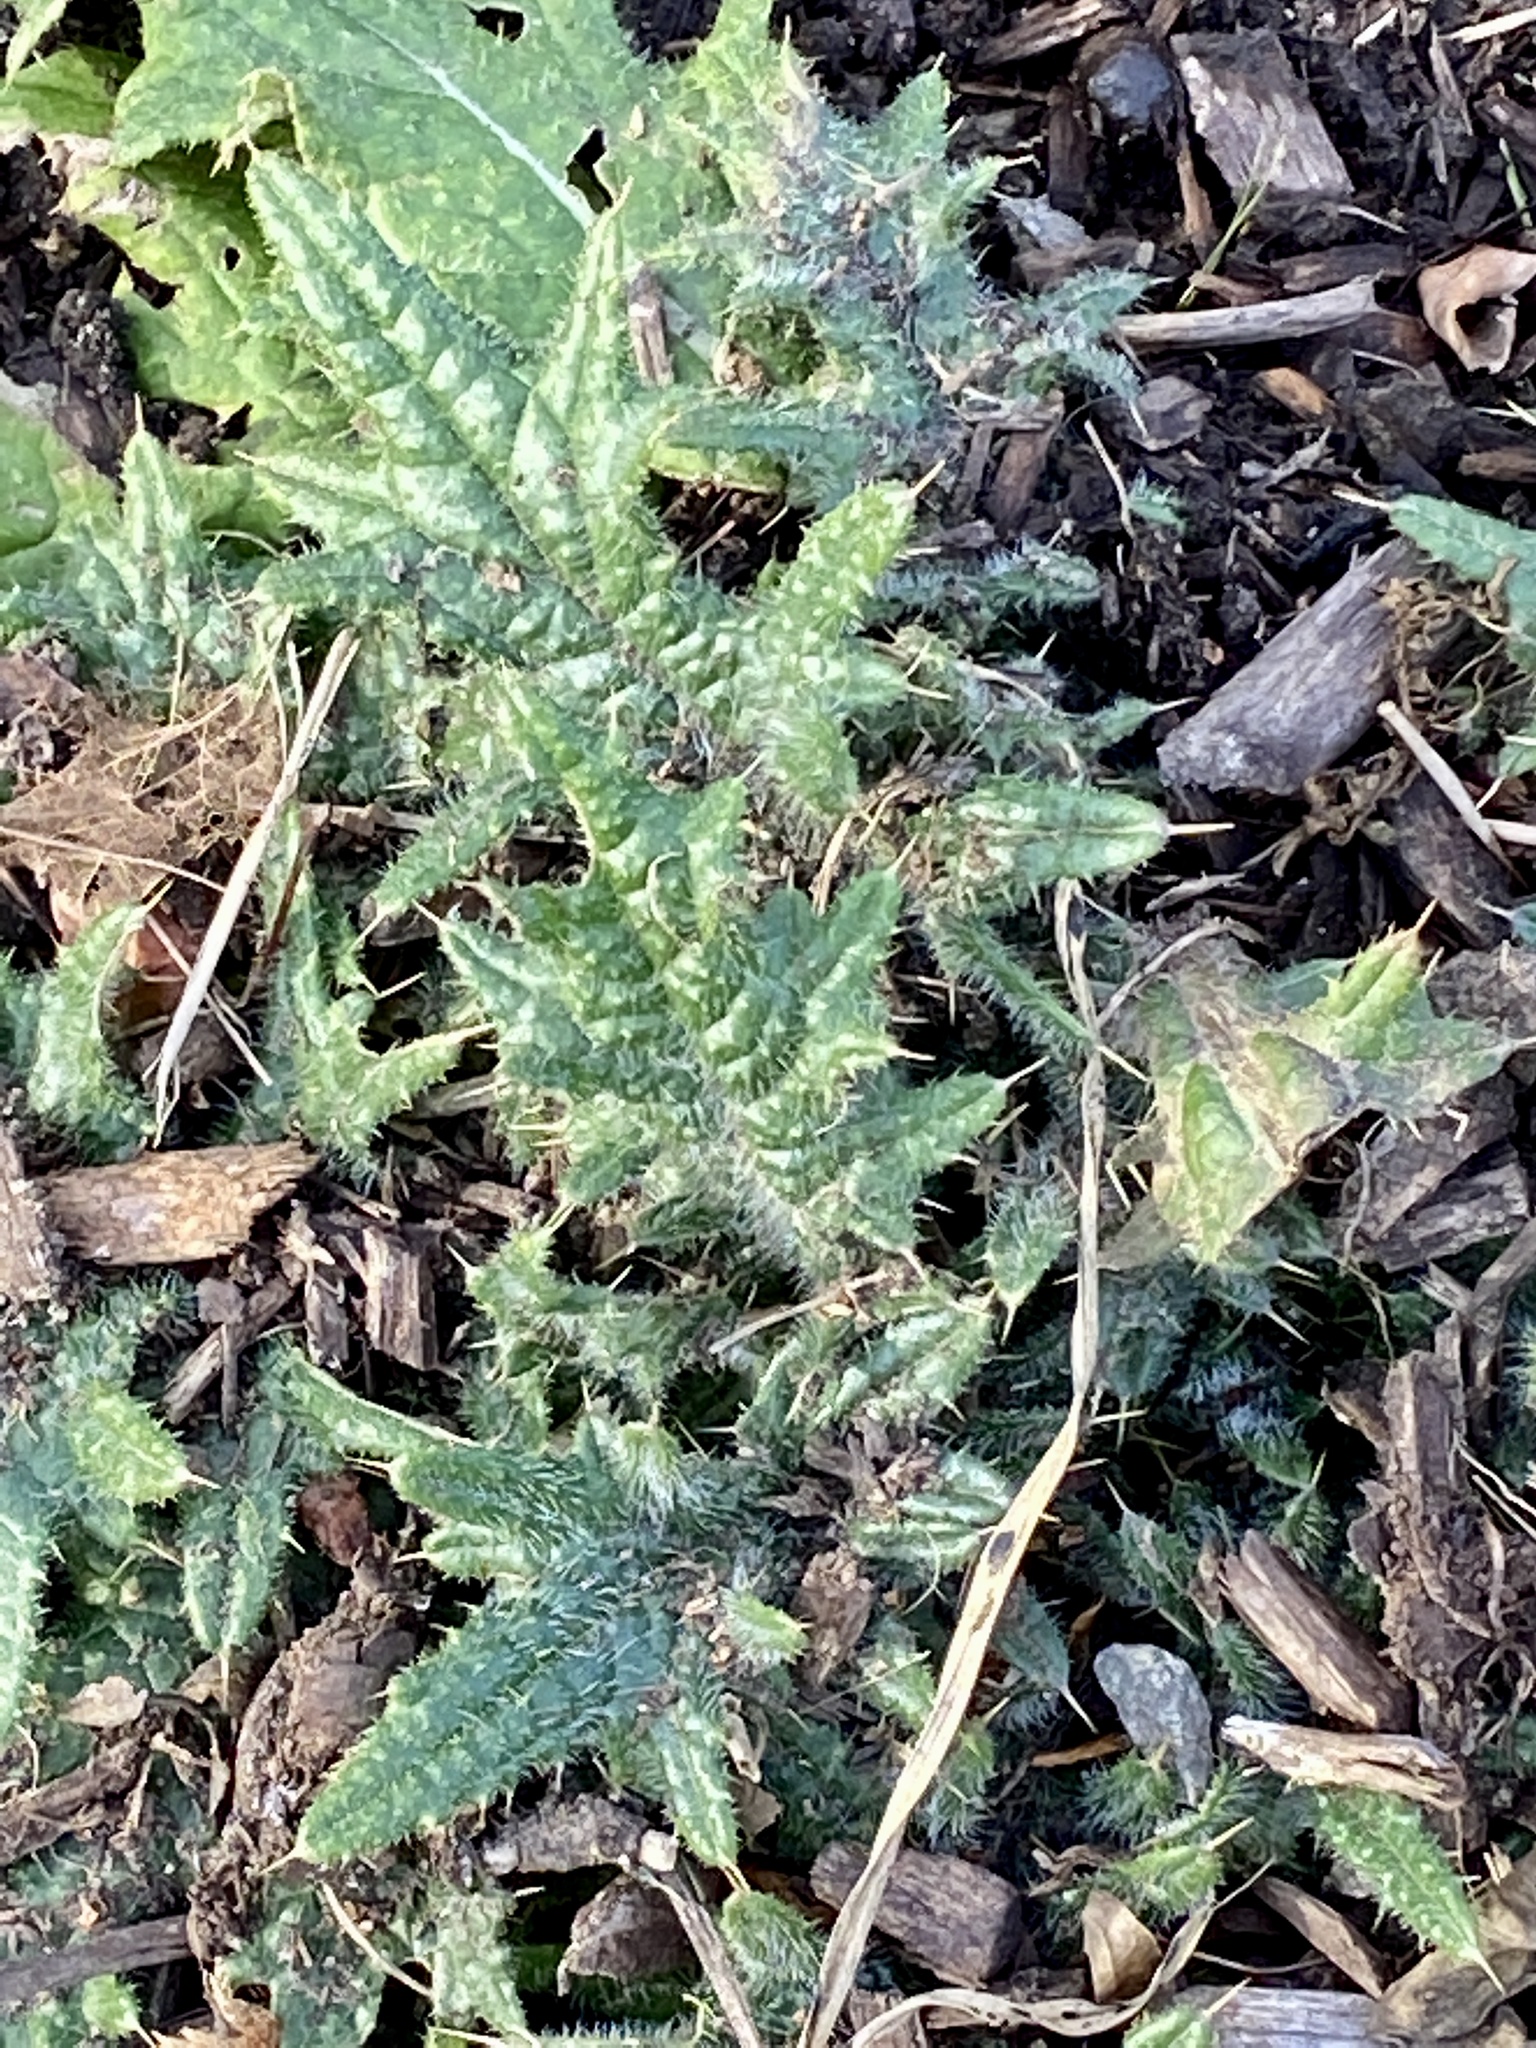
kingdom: Plantae
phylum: Tracheophyta
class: Magnoliopsida
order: Asterales
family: Asteraceae
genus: Cirsium
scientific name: Cirsium vulgare
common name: Bull thistle
